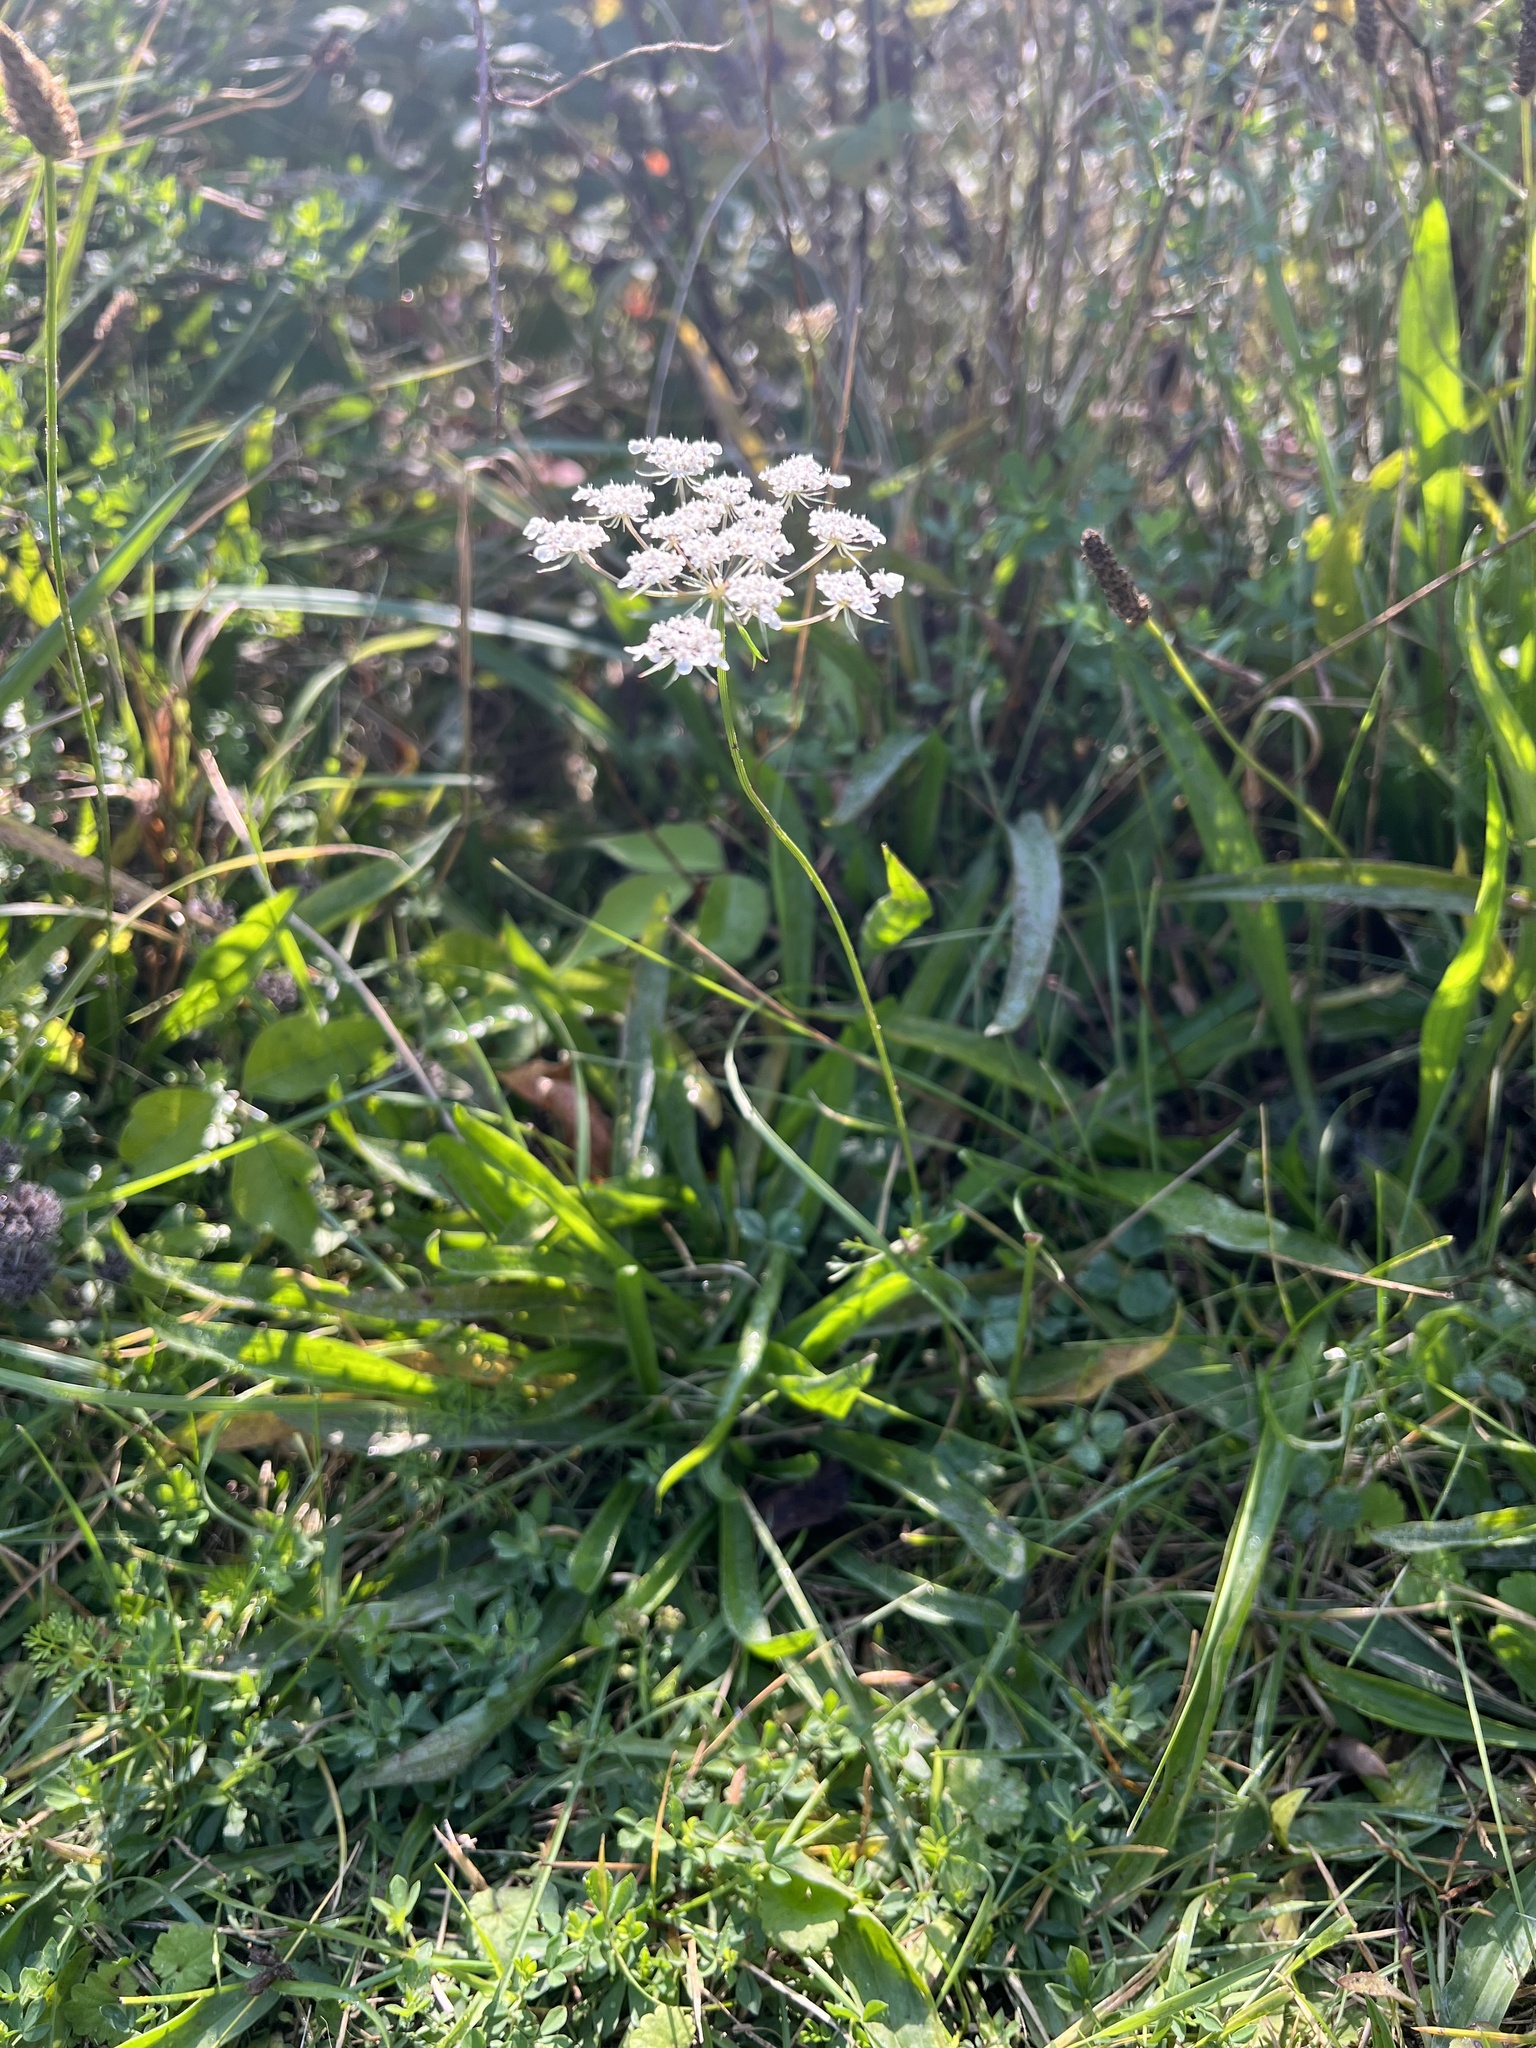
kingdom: Plantae
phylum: Tracheophyta
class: Magnoliopsida
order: Apiales
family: Apiaceae
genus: Daucus
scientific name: Daucus carota
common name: Wild carrot
